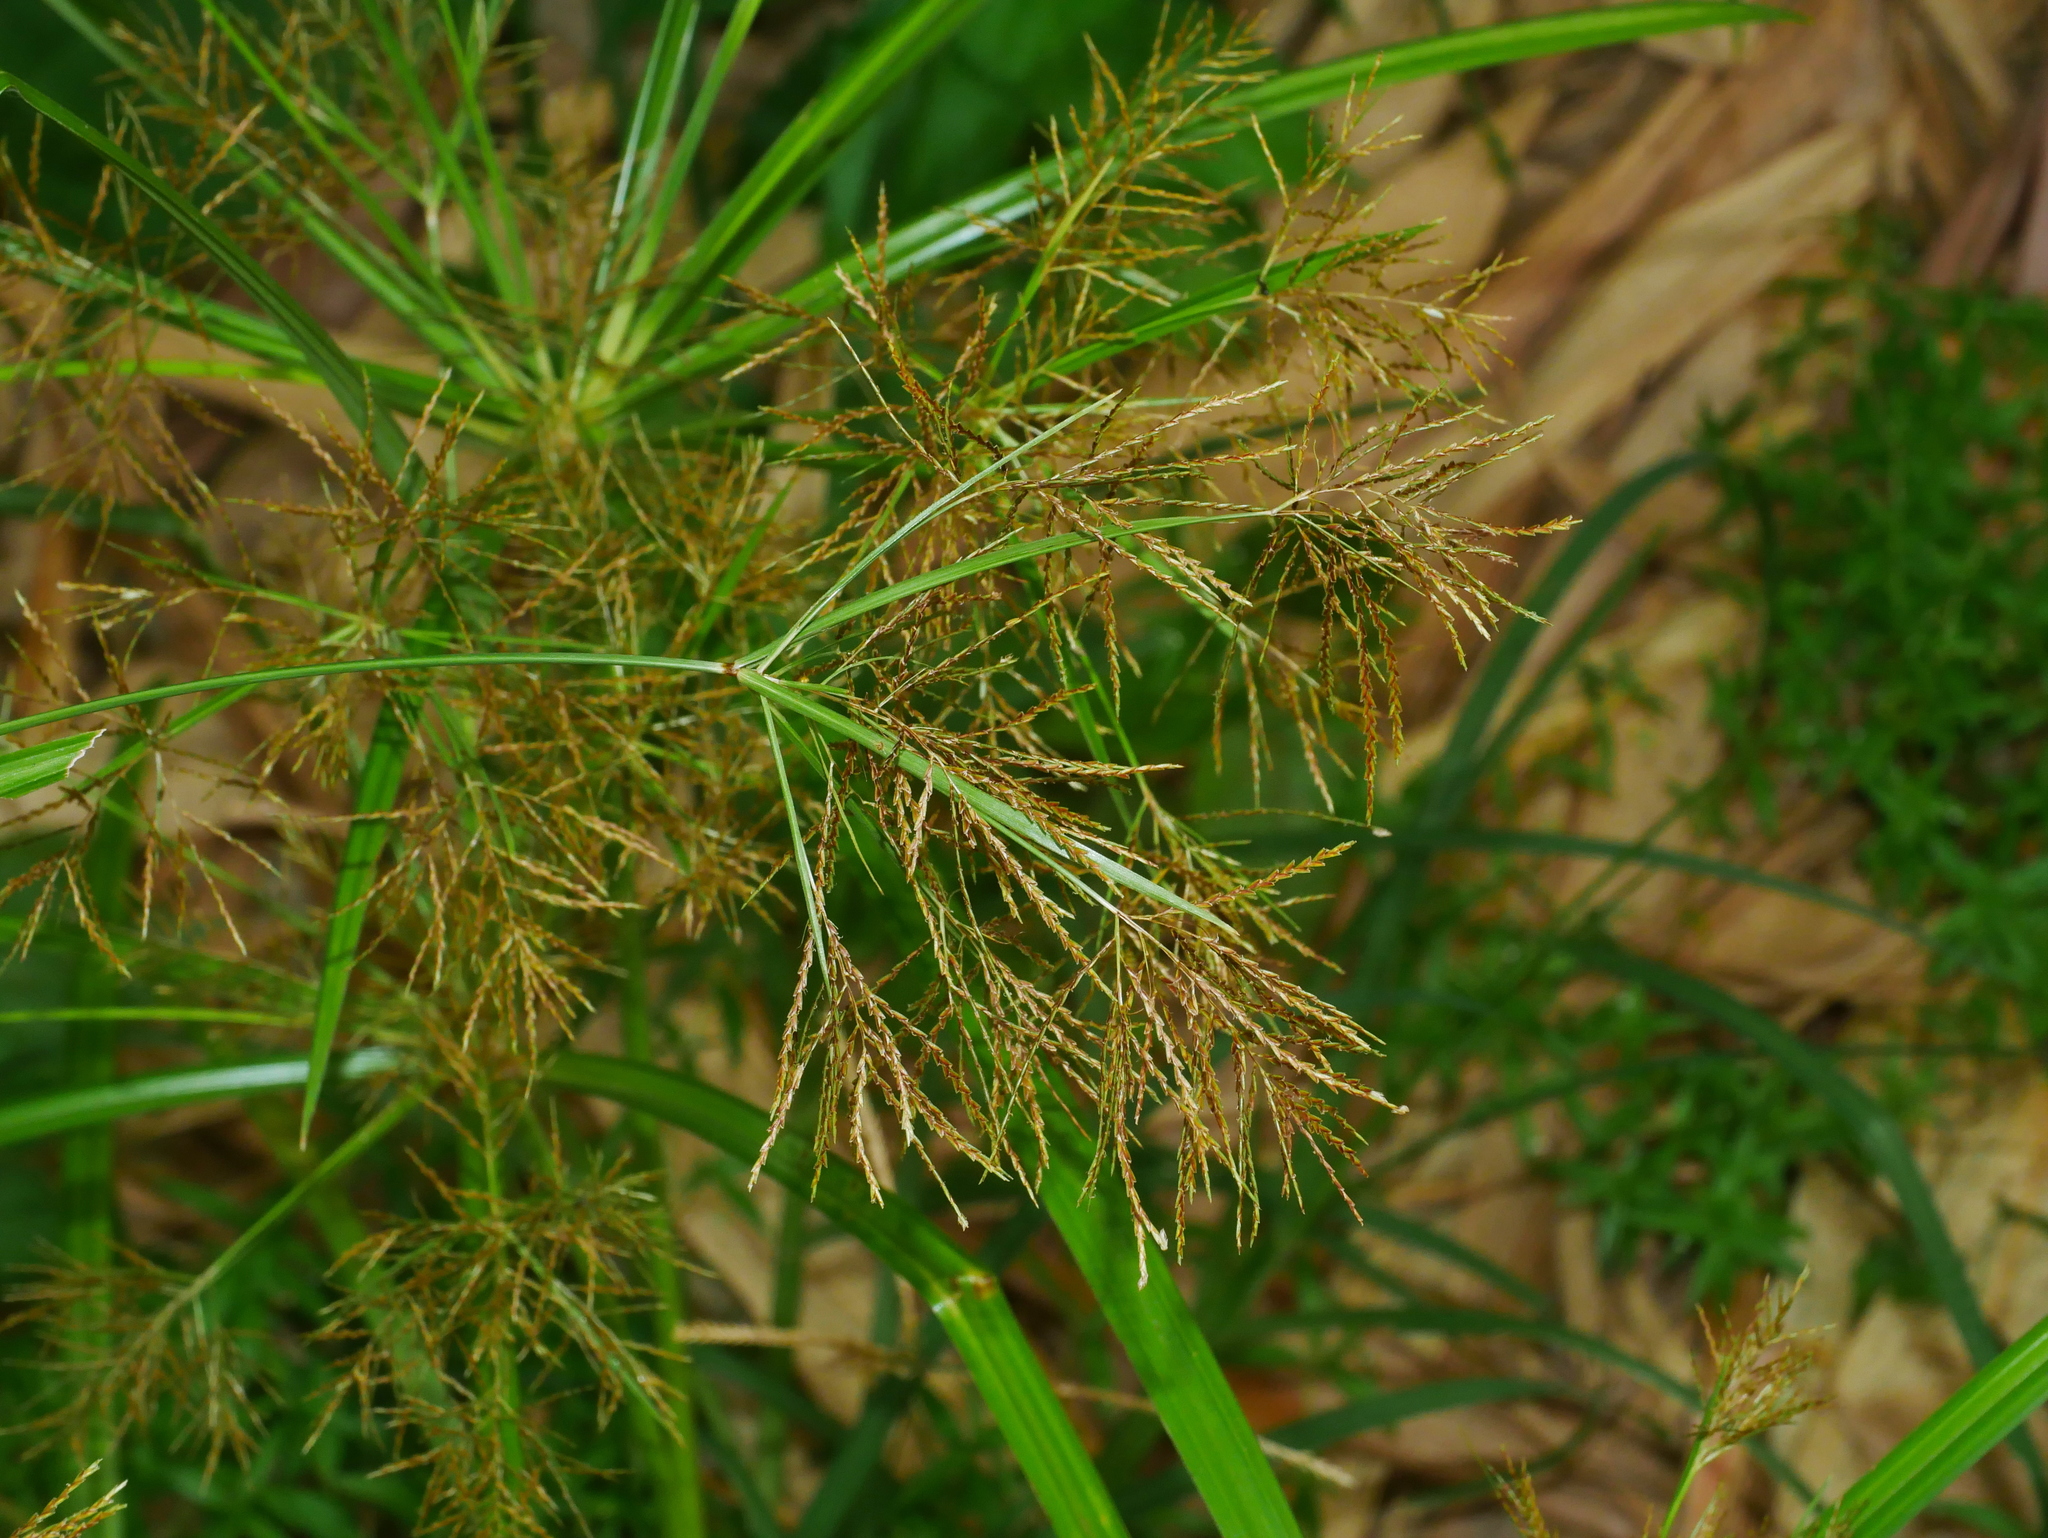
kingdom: Plantae
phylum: Tracheophyta
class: Liliopsida
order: Poales
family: Cyperaceae
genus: Cyperus
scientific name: Cyperus distans
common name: Slender cyperus
